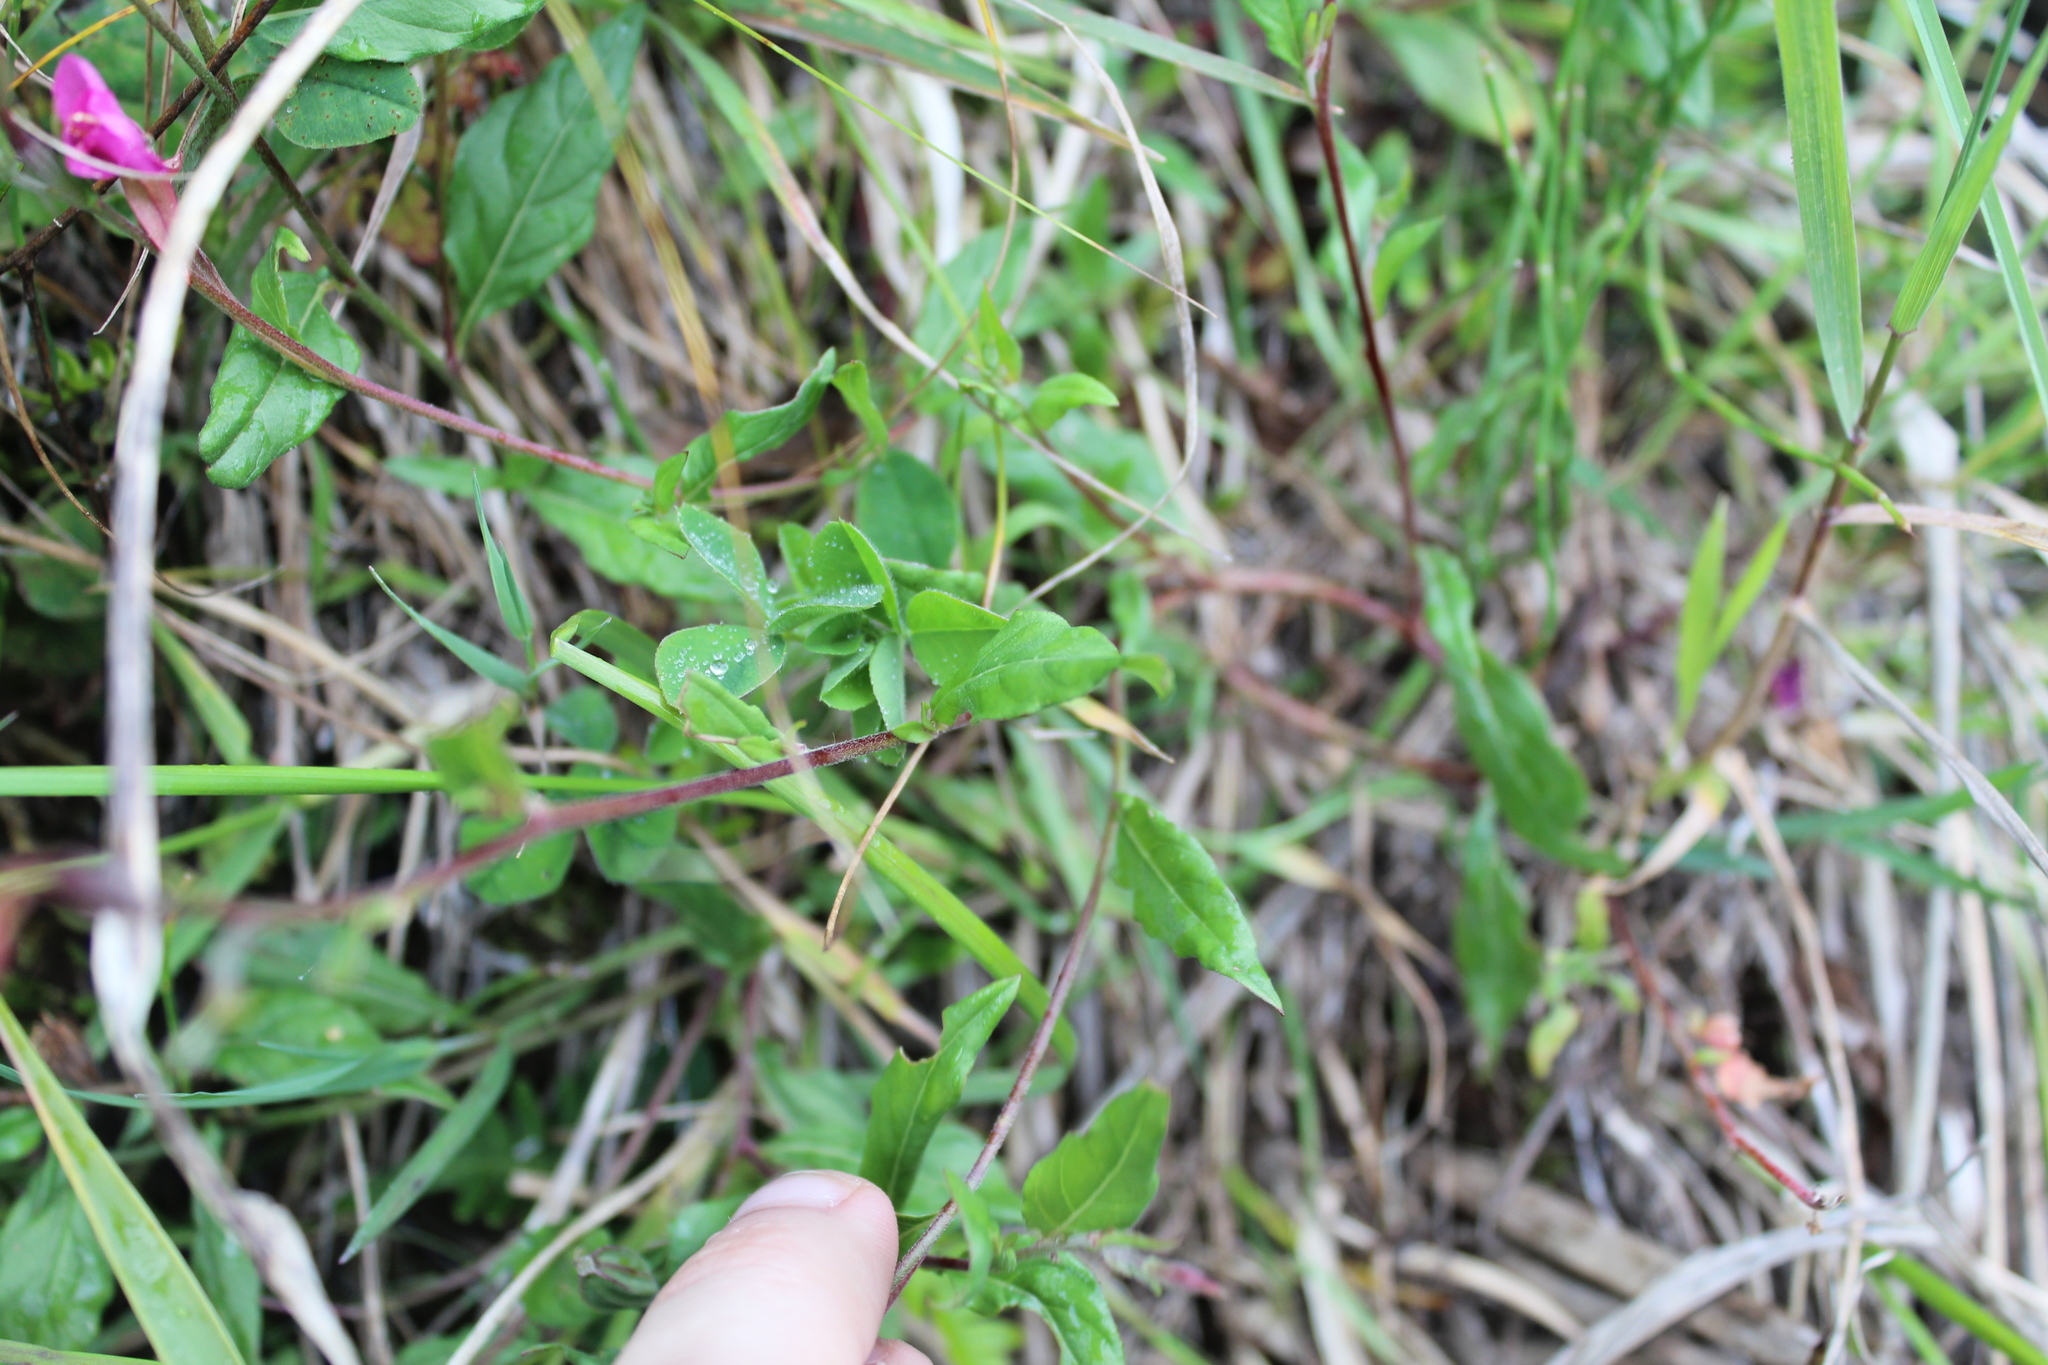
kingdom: Plantae
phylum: Tracheophyta
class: Magnoliopsida
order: Myrtales
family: Onagraceae
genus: Oenothera
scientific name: Oenothera rosea
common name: Rosy evening-primrose
